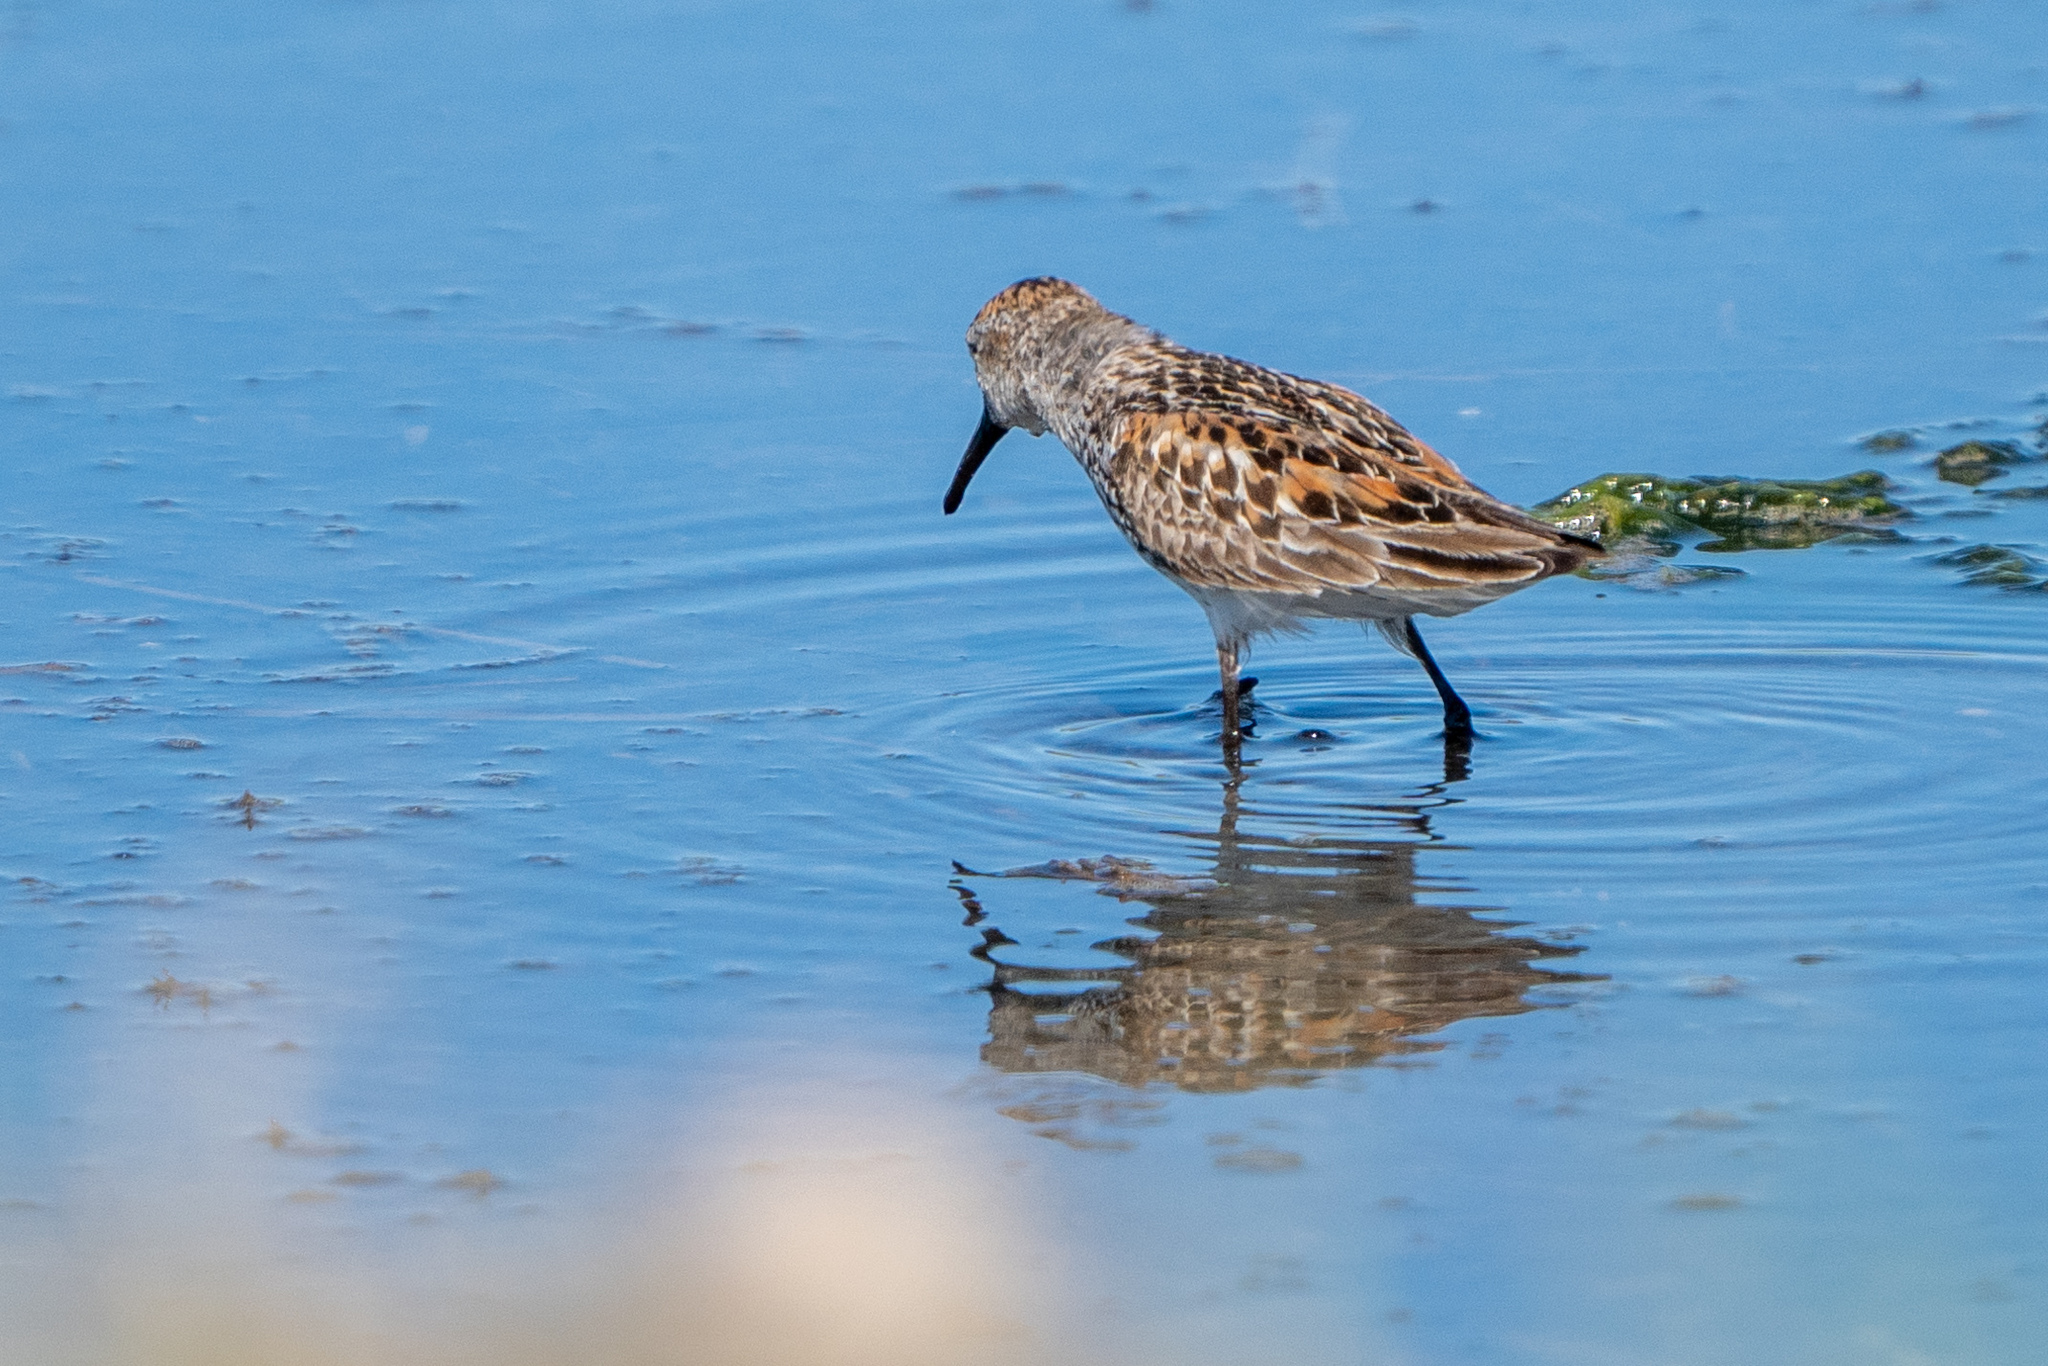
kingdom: Animalia
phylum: Chordata
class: Aves
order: Charadriiformes
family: Scolopacidae
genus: Calidris
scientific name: Calidris mauri
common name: Western sandpiper
